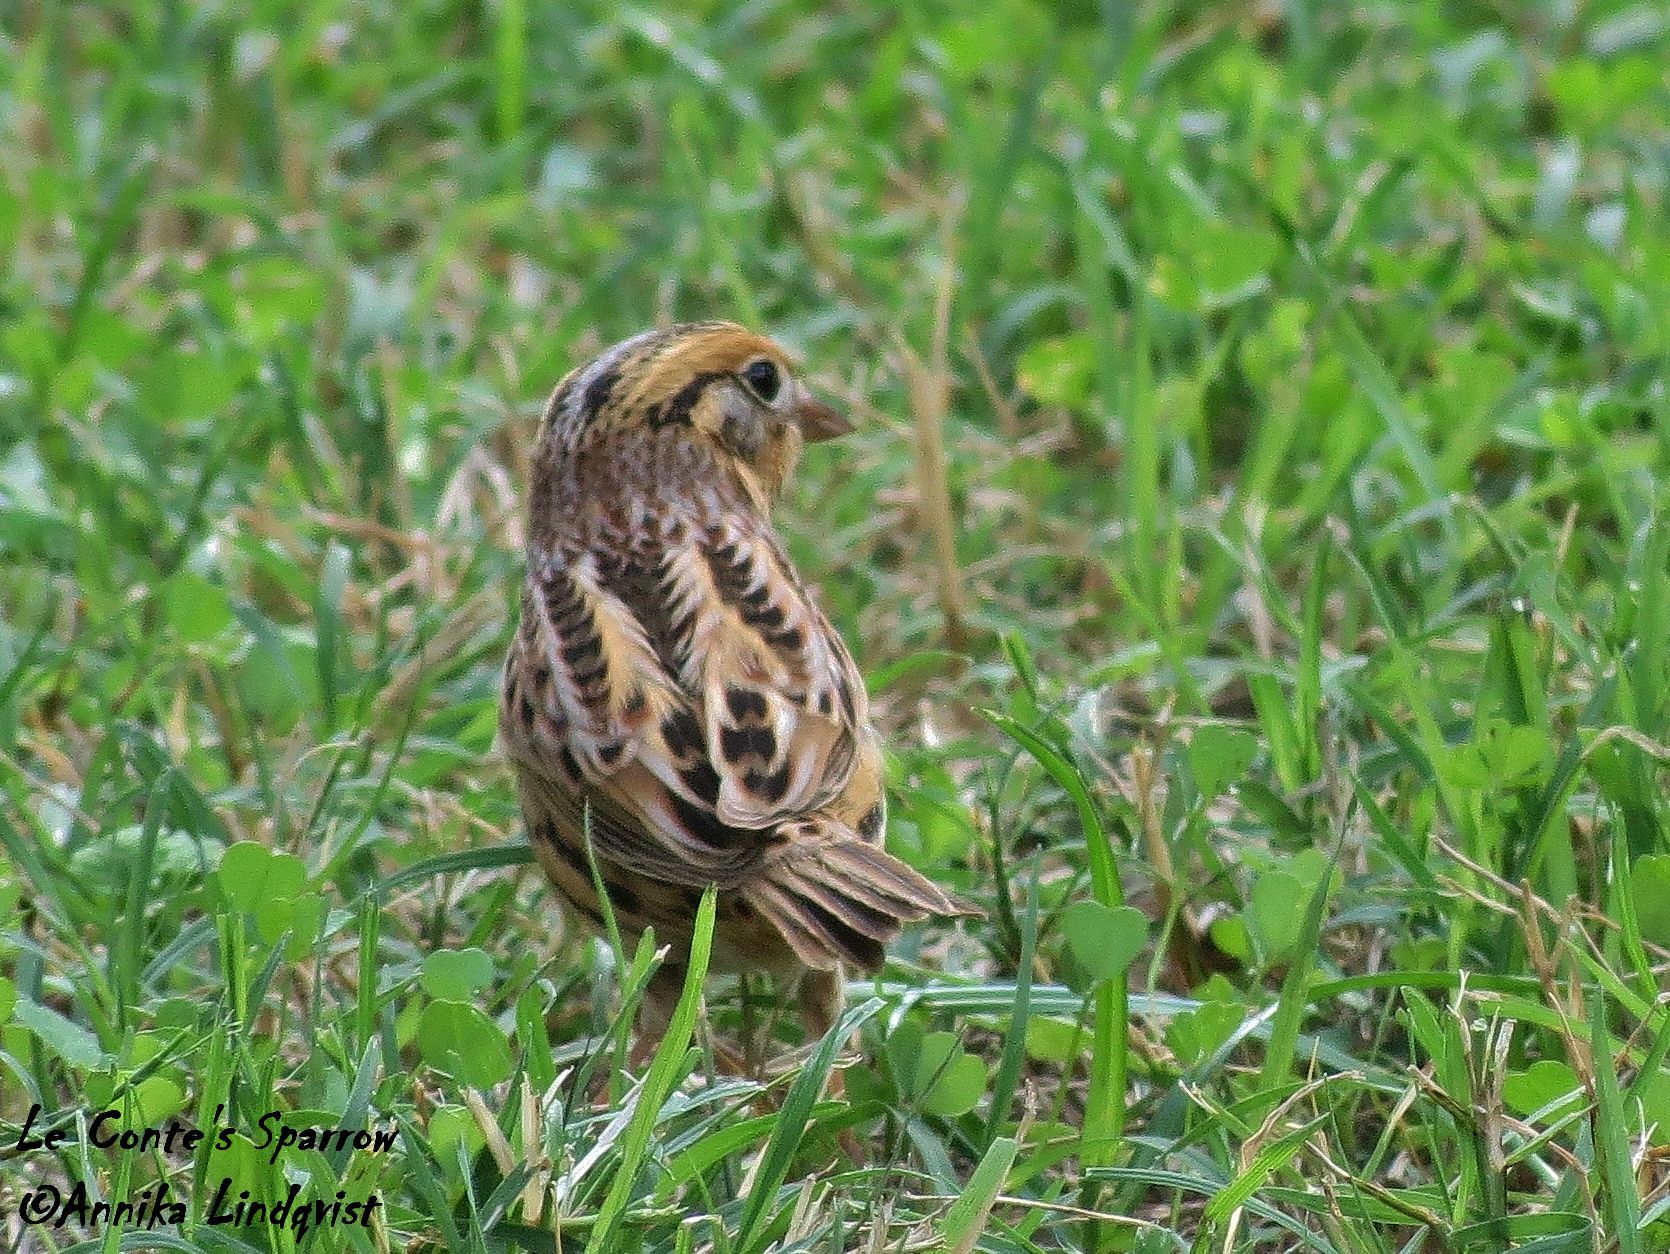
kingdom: Animalia
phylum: Chordata
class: Aves
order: Passeriformes
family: Passerellidae
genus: Ammospiza
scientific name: Ammospiza leconteii
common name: Le conte's sparrow
